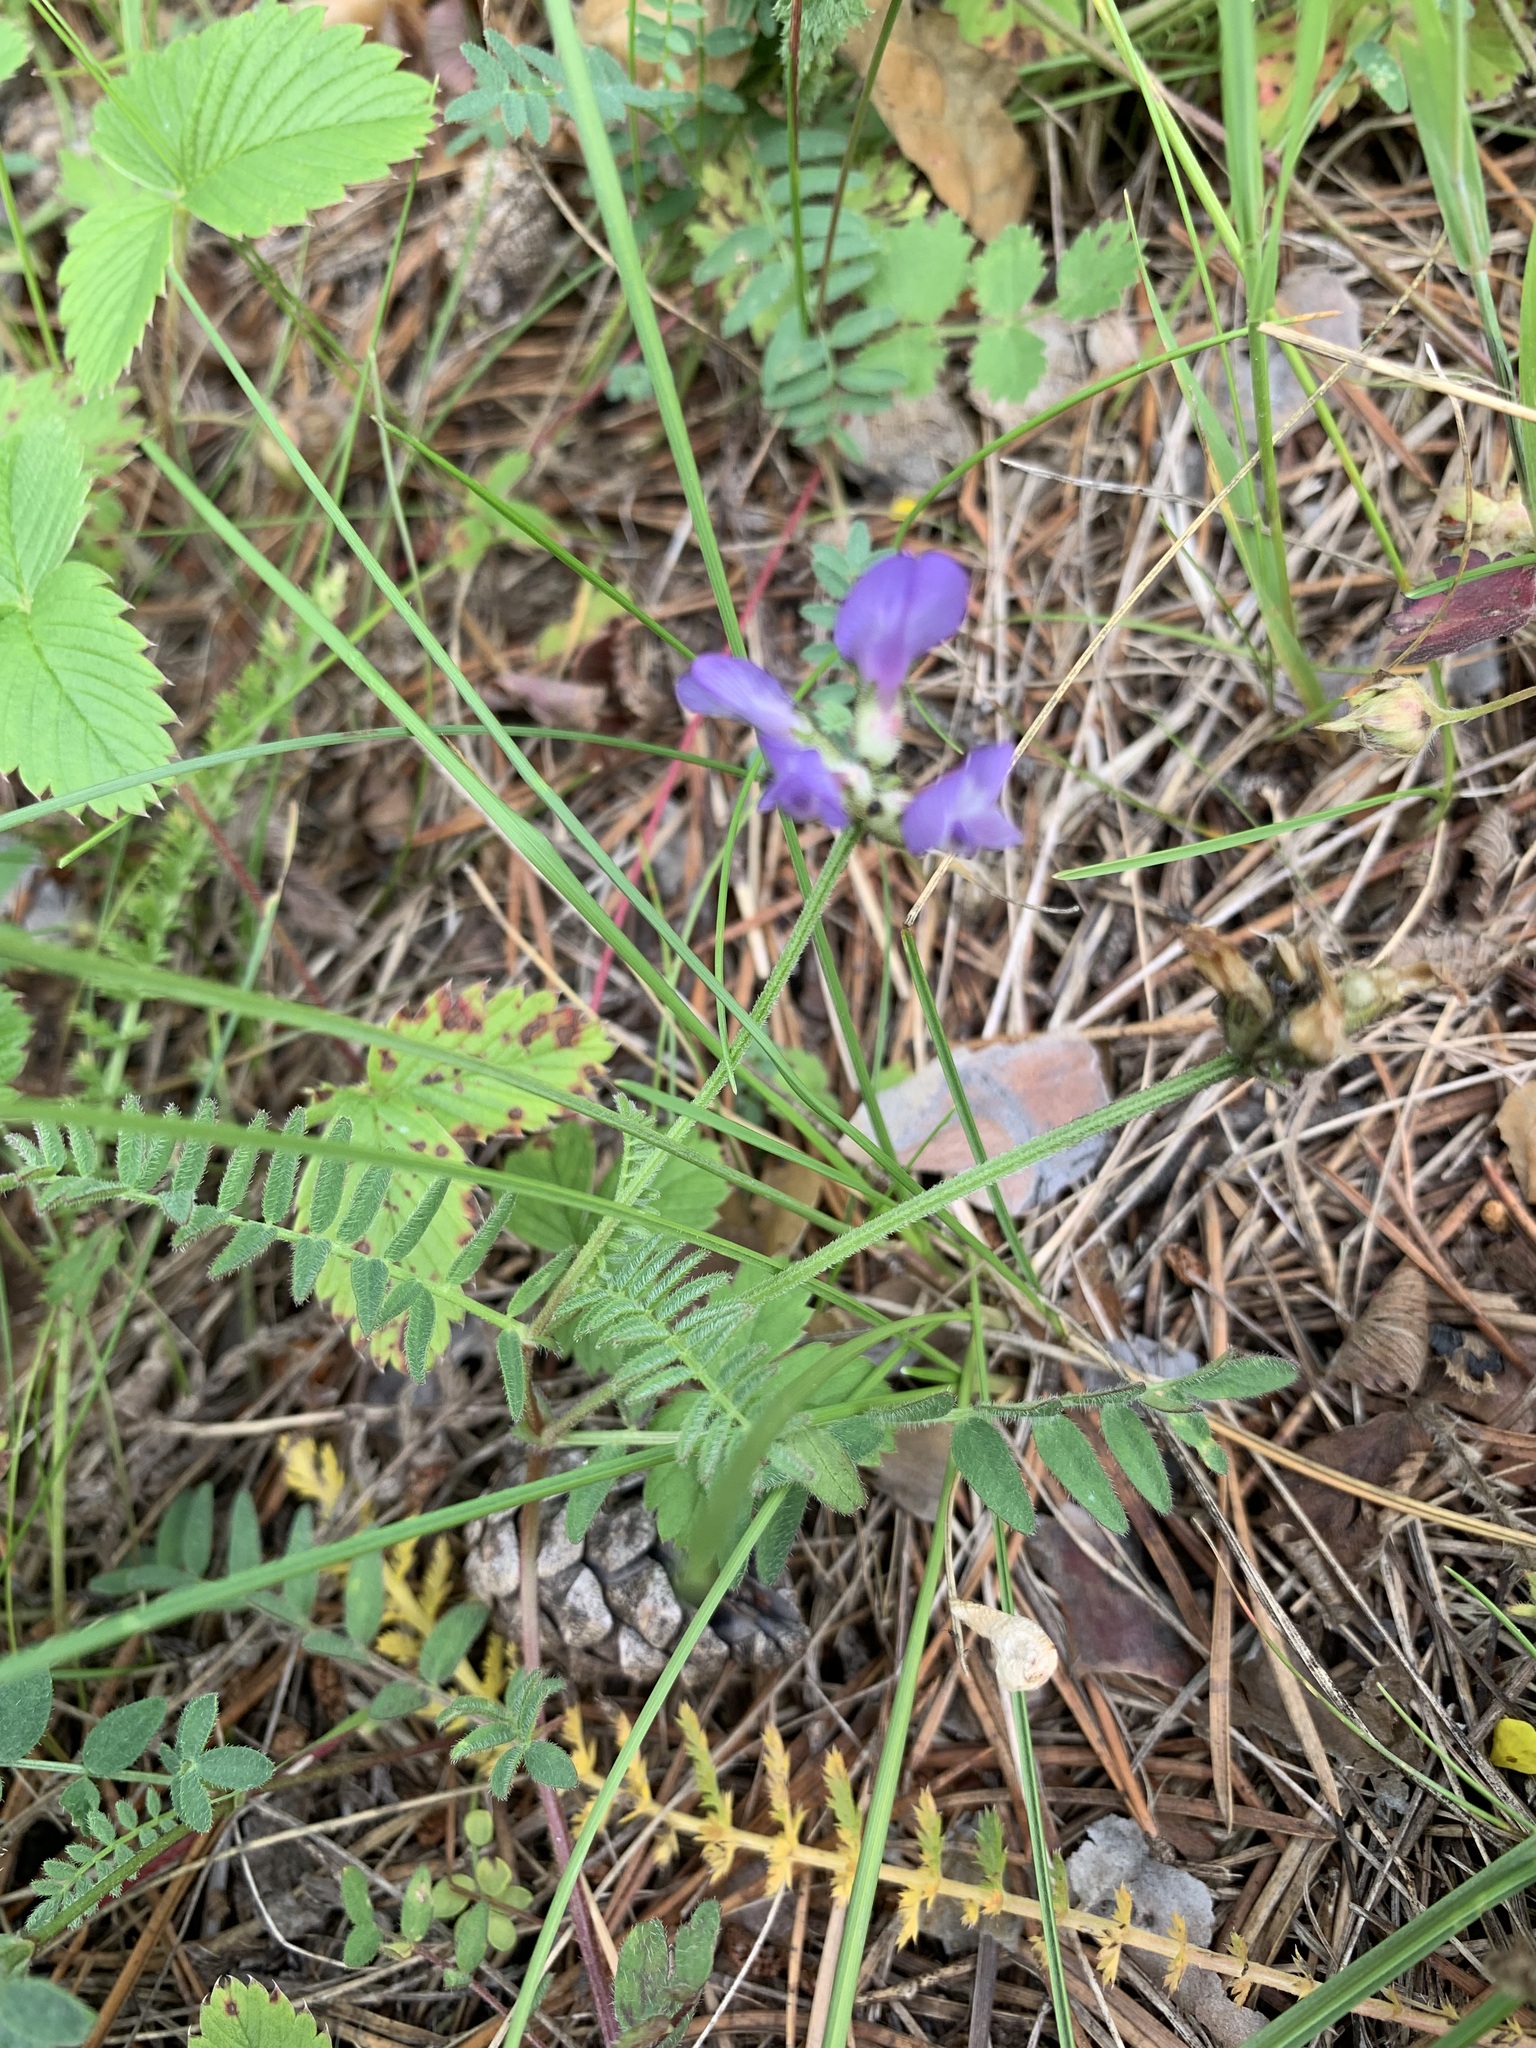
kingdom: Plantae
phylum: Tracheophyta
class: Magnoliopsida
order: Fabales
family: Fabaceae
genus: Astragalus
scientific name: Astragalus danicus
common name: Purple milk-vetch
